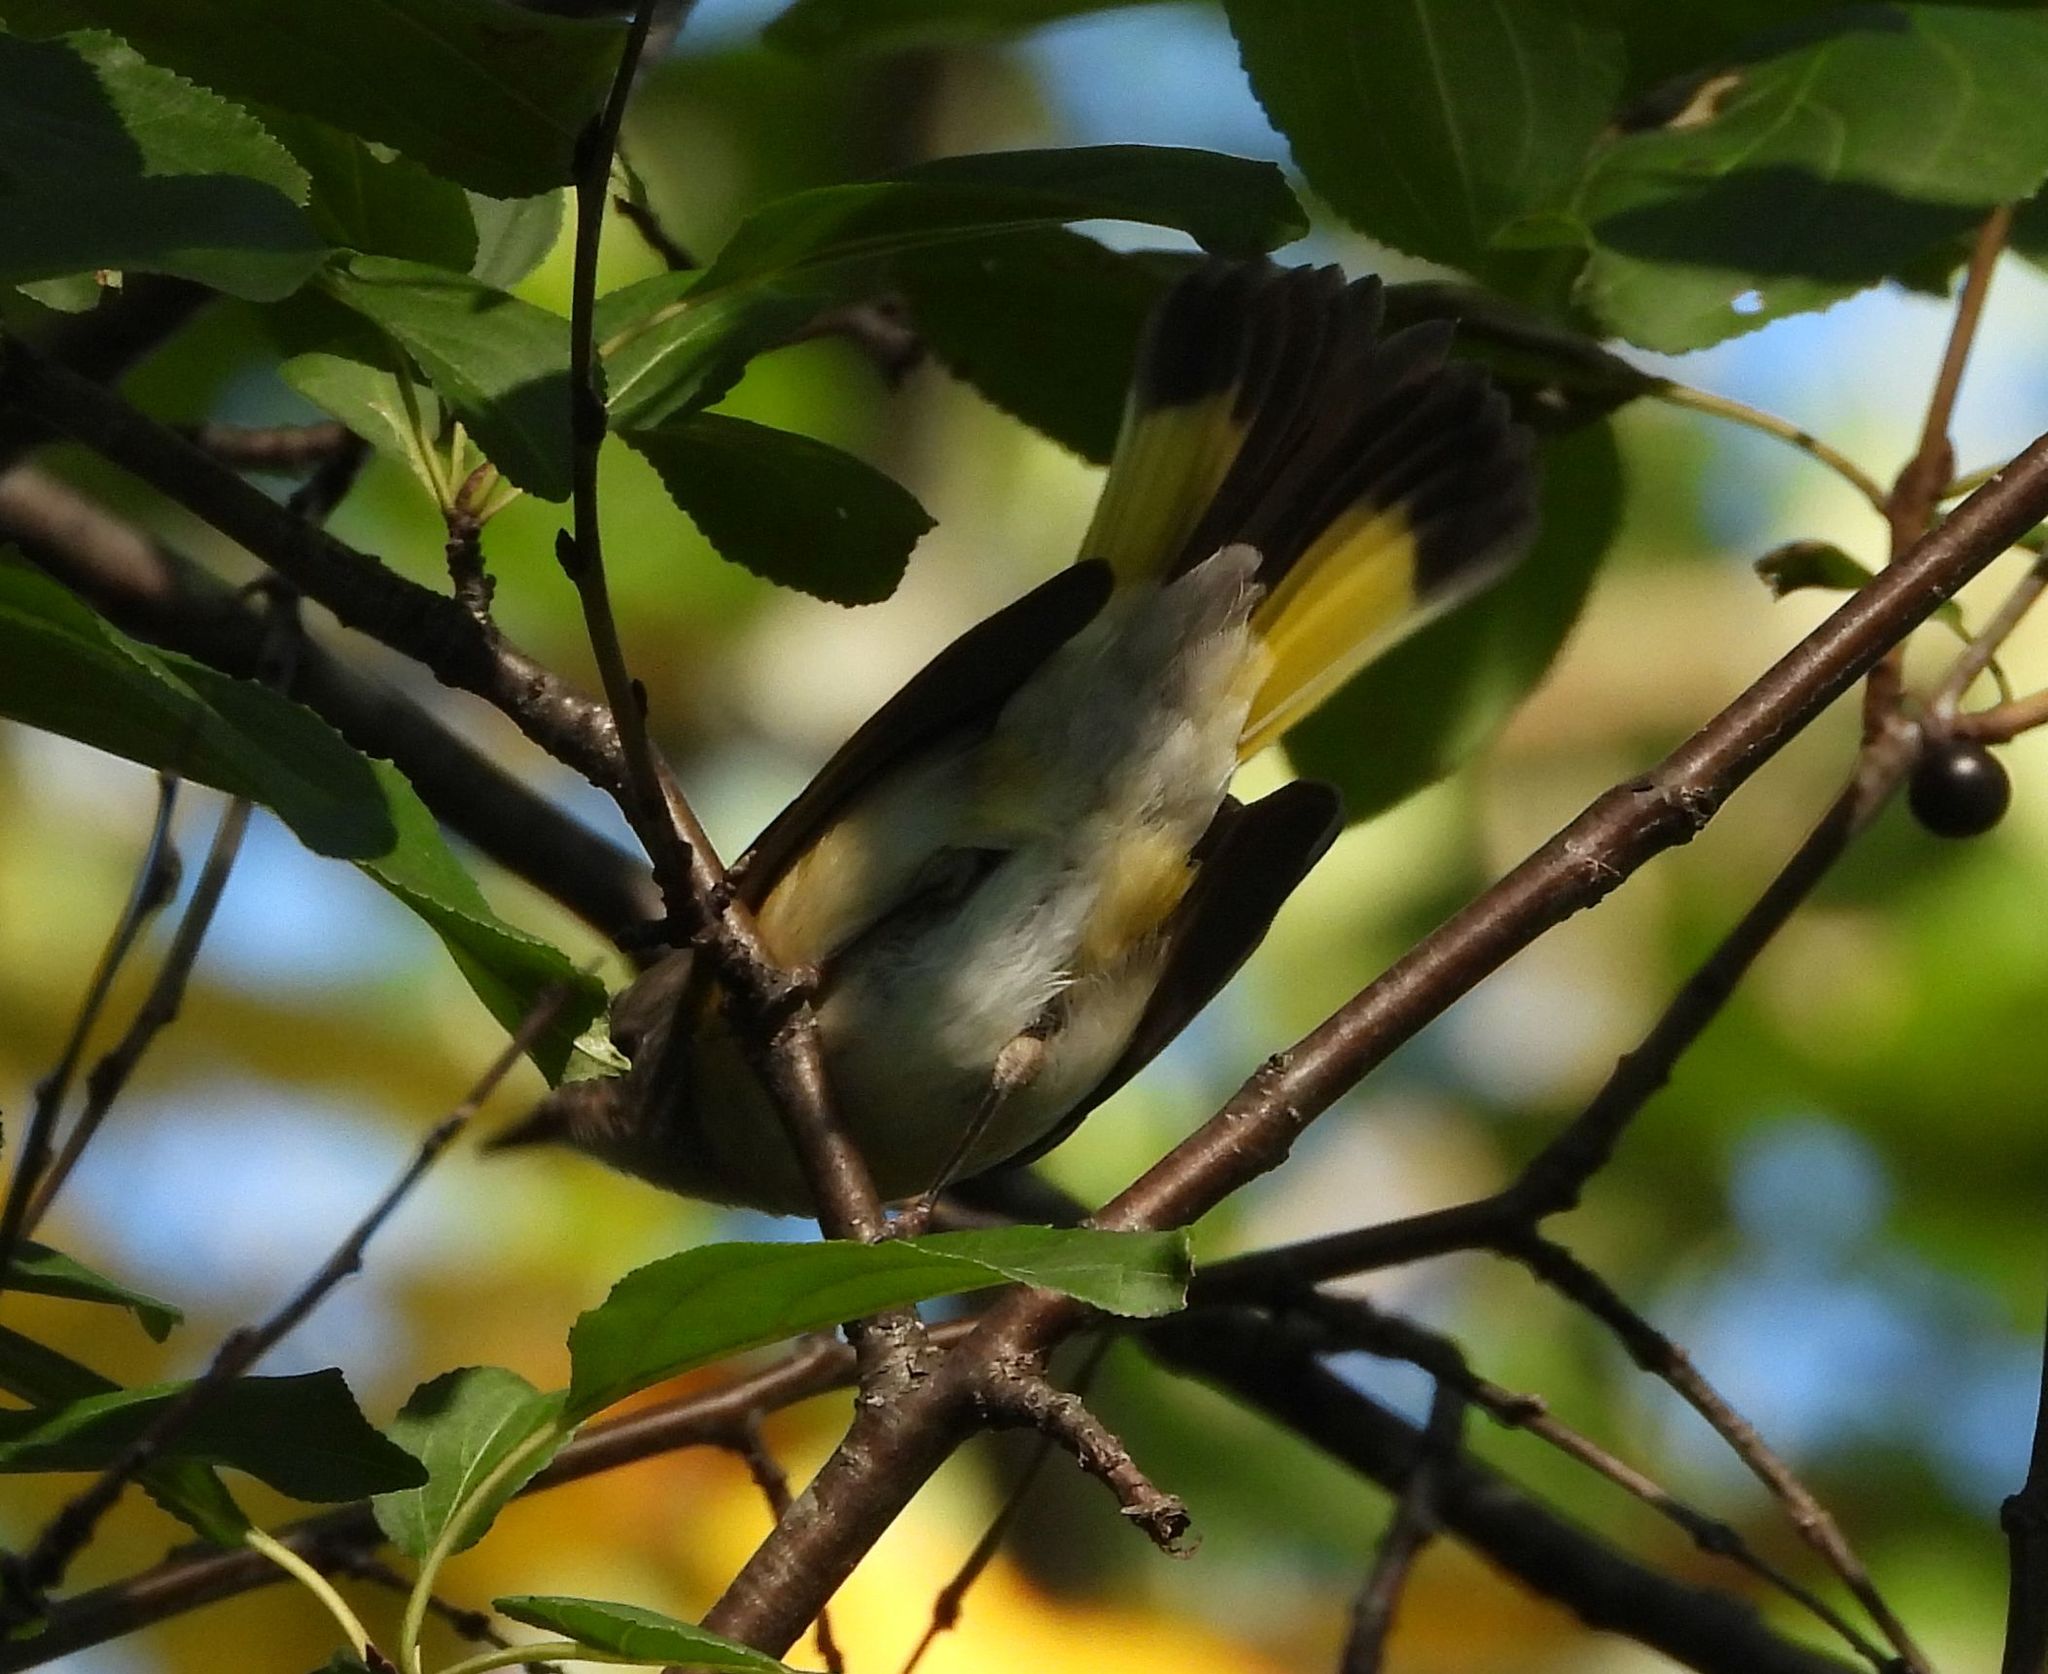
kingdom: Animalia
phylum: Chordata
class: Aves
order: Passeriformes
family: Parulidae
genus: Setophaga
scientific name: Setophaga ruticilla
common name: American redstart
